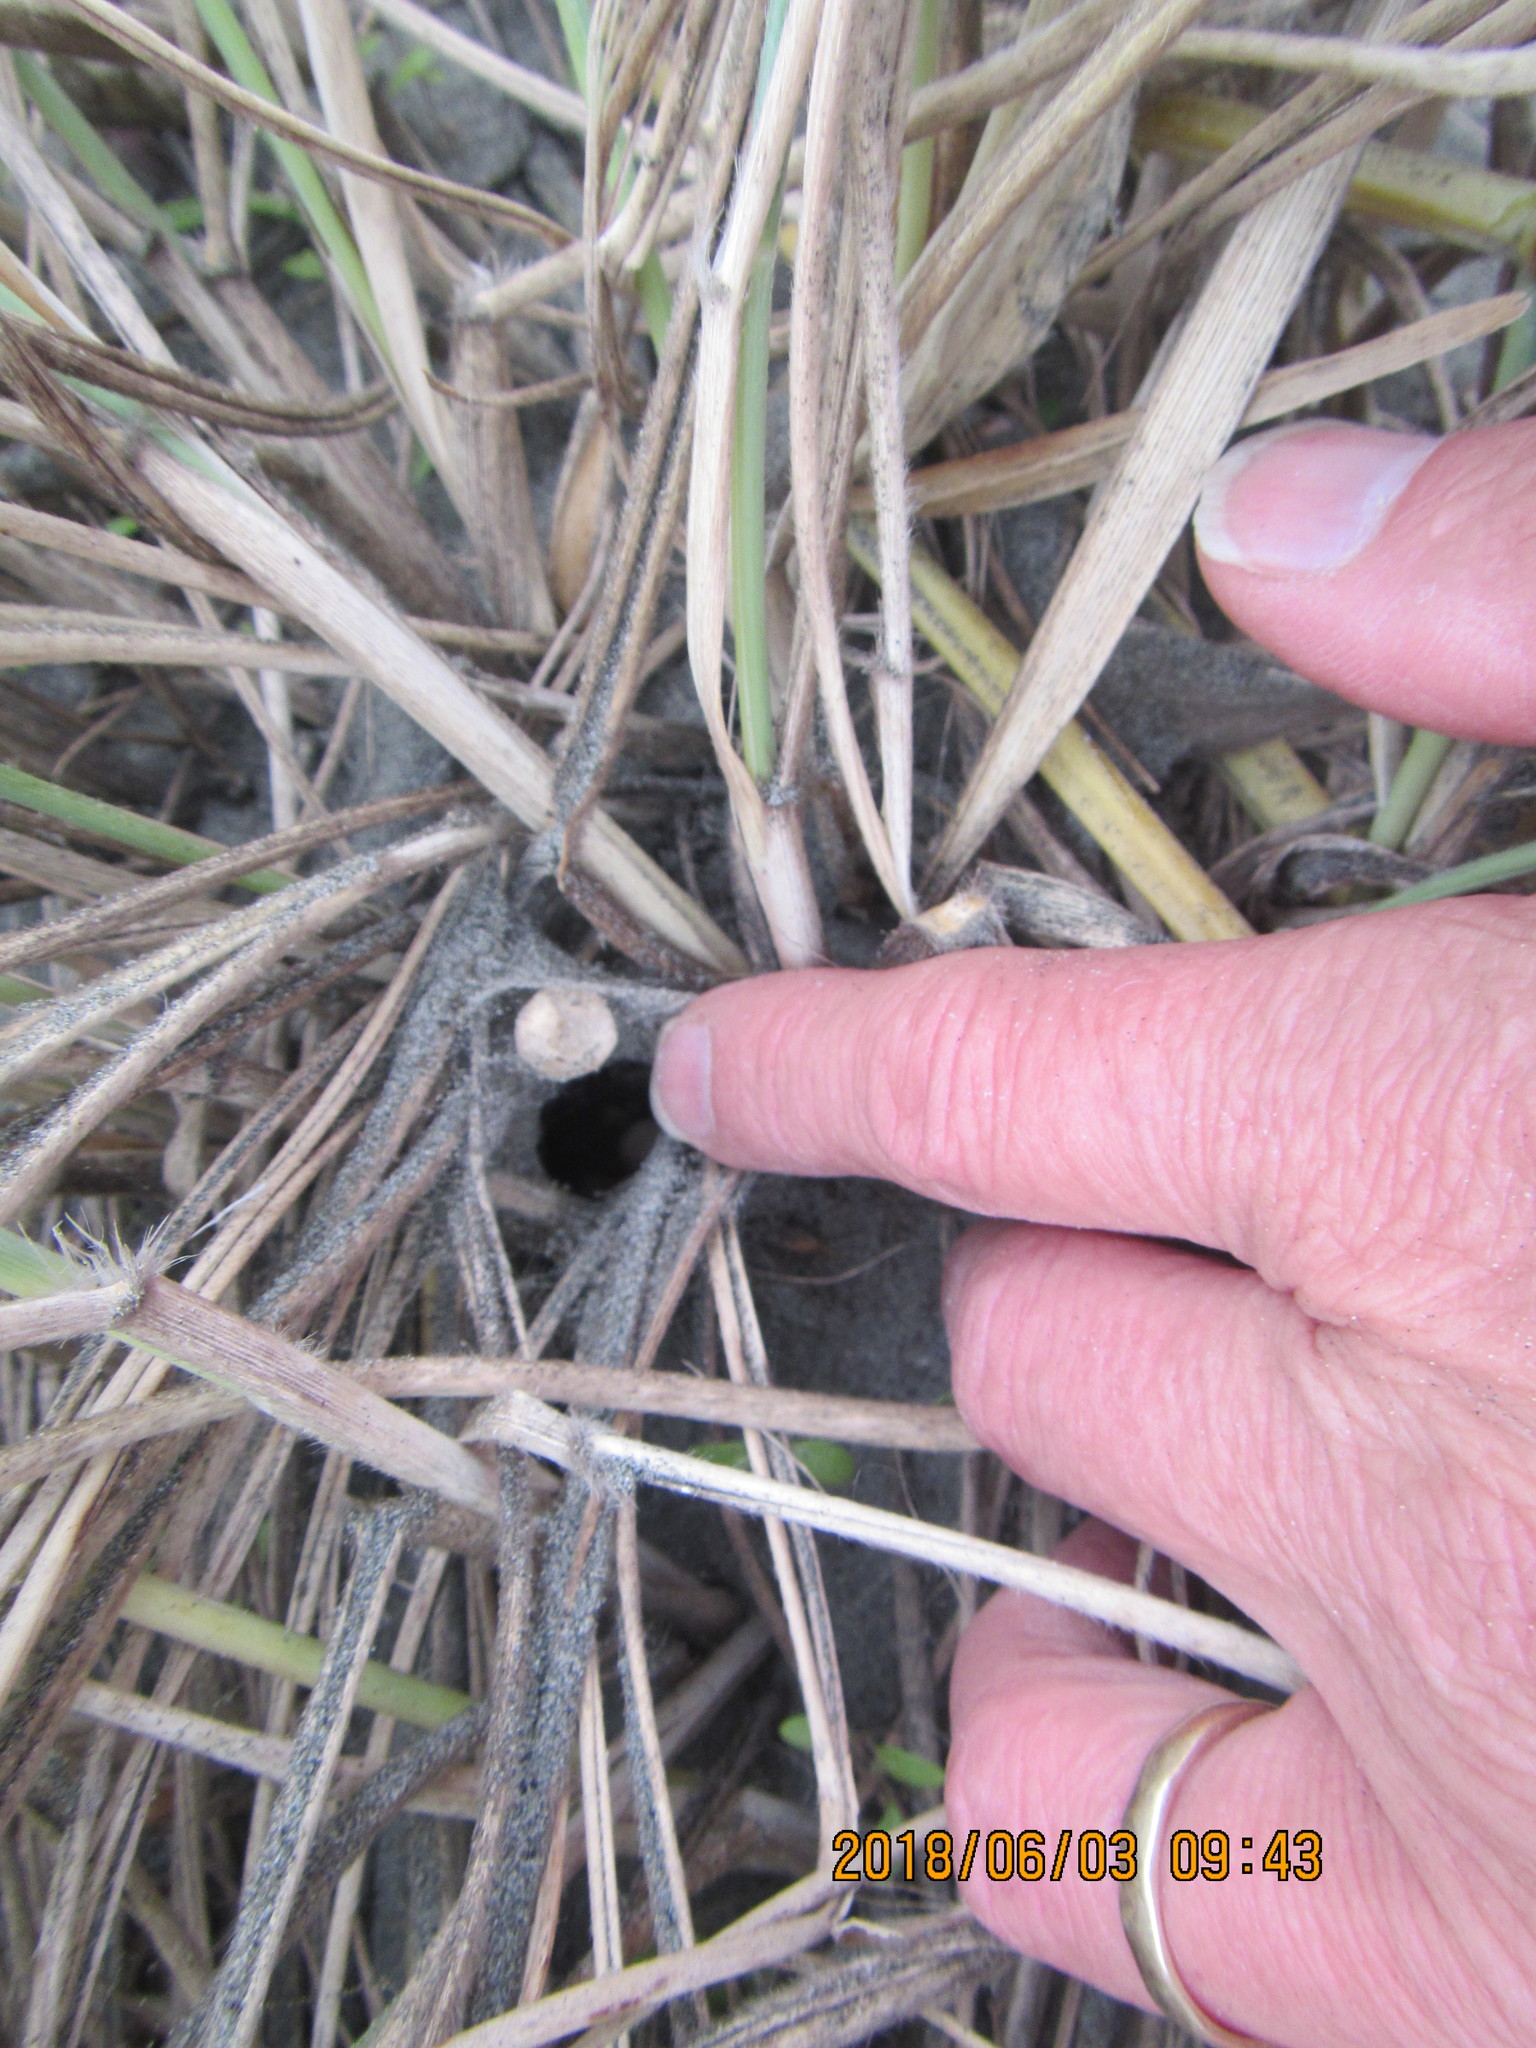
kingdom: Animalia
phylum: Arthropoda
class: Malacostraca
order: Isopoda
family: Porcellionidae
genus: Porcellio
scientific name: Porcellio scaber
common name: Common rough woodlouse
